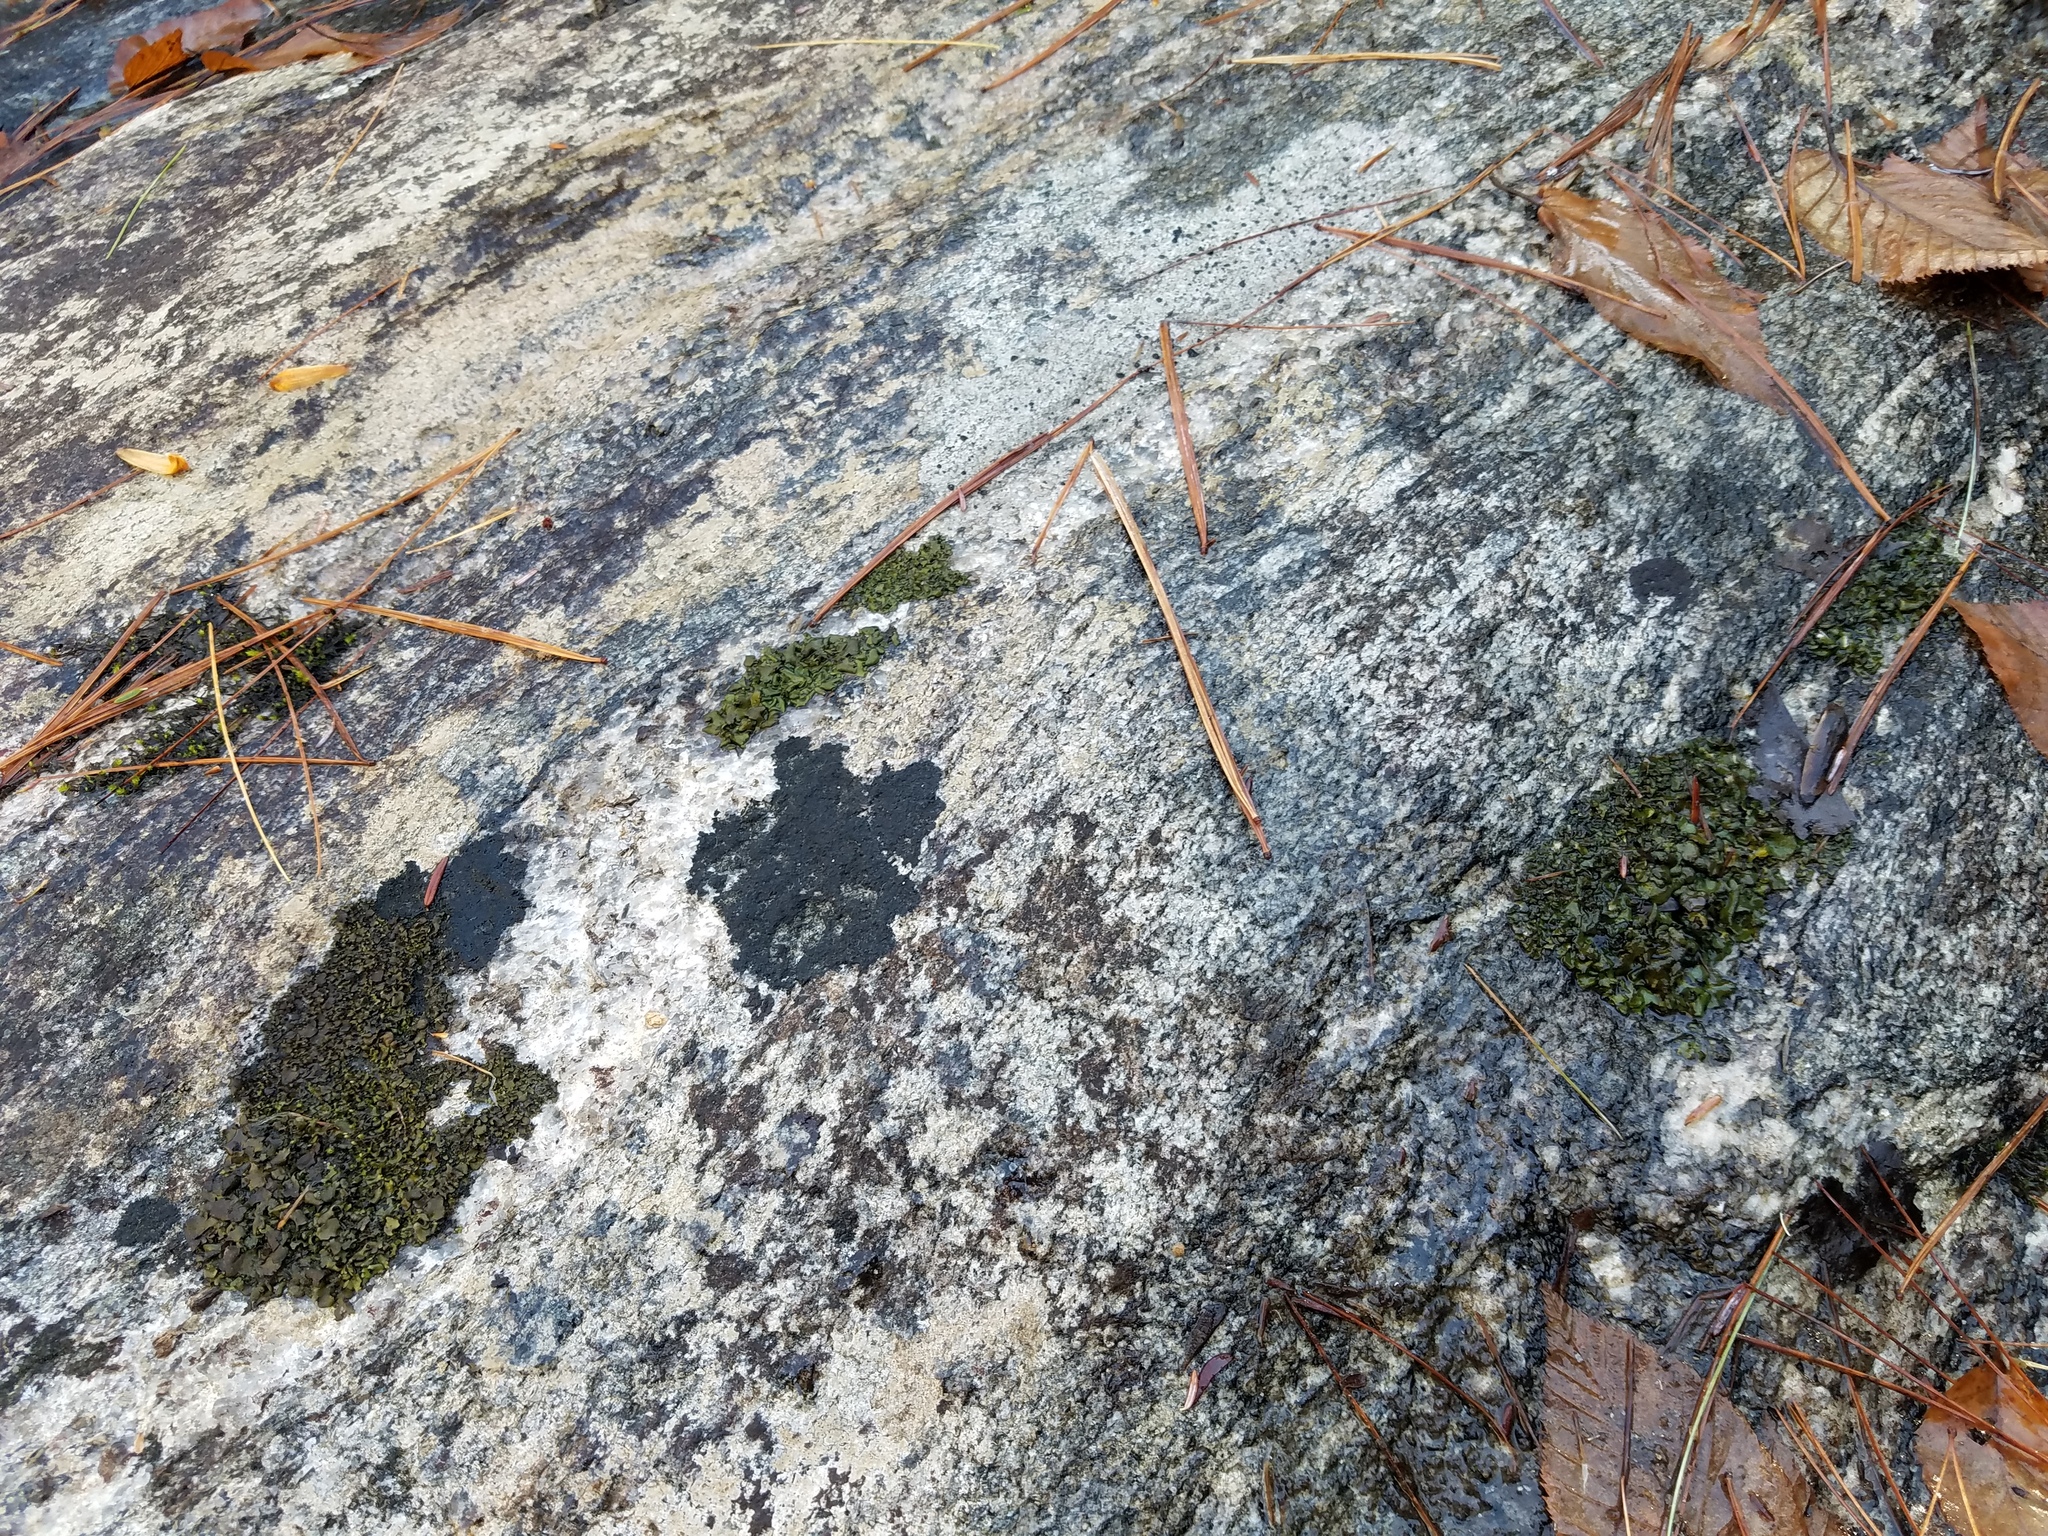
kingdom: Fungi
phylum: Ascomycota
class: Eurotiomycetes
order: Verrucariales
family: Verrucariaceae
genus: Dermatocarpon
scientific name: Dermatocarpon luridum
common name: Brook stippleback lichen
